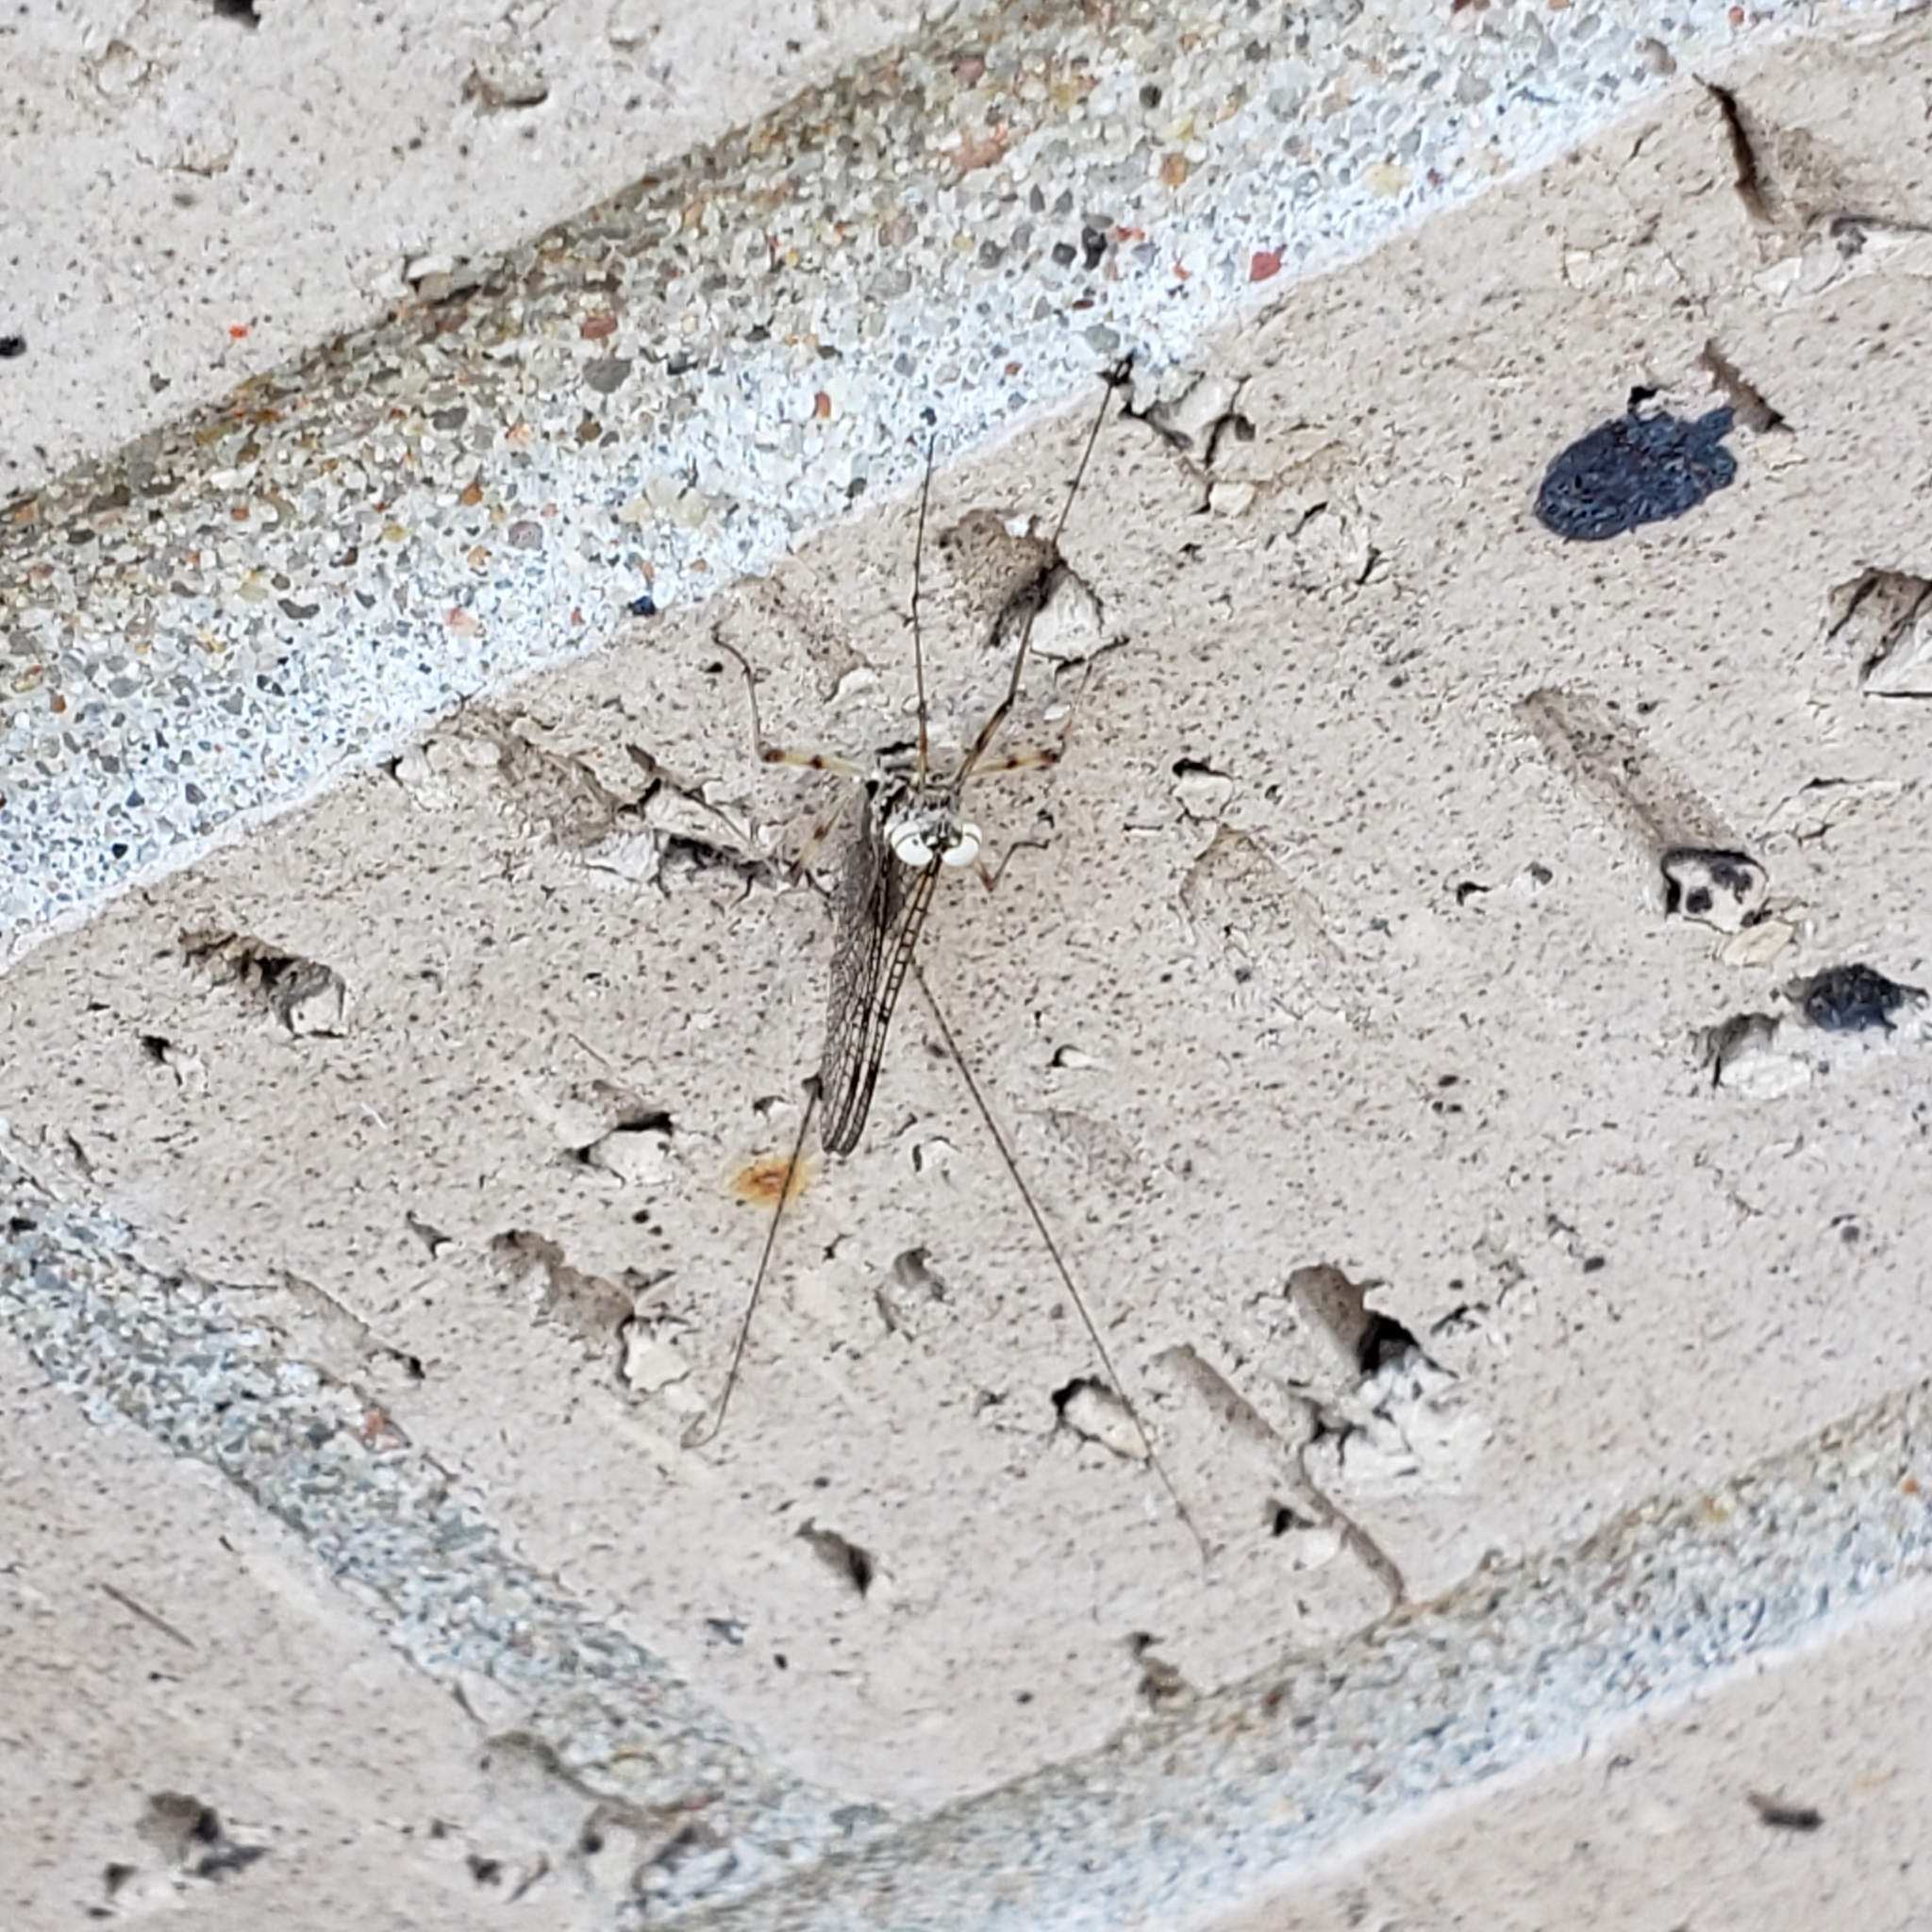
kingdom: Animalia
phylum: Arthropoda
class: Insecta
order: Ephemeroptera
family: Heptageniidae
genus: Stenonema
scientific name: Stenonema femoratum
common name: Dark cahill
